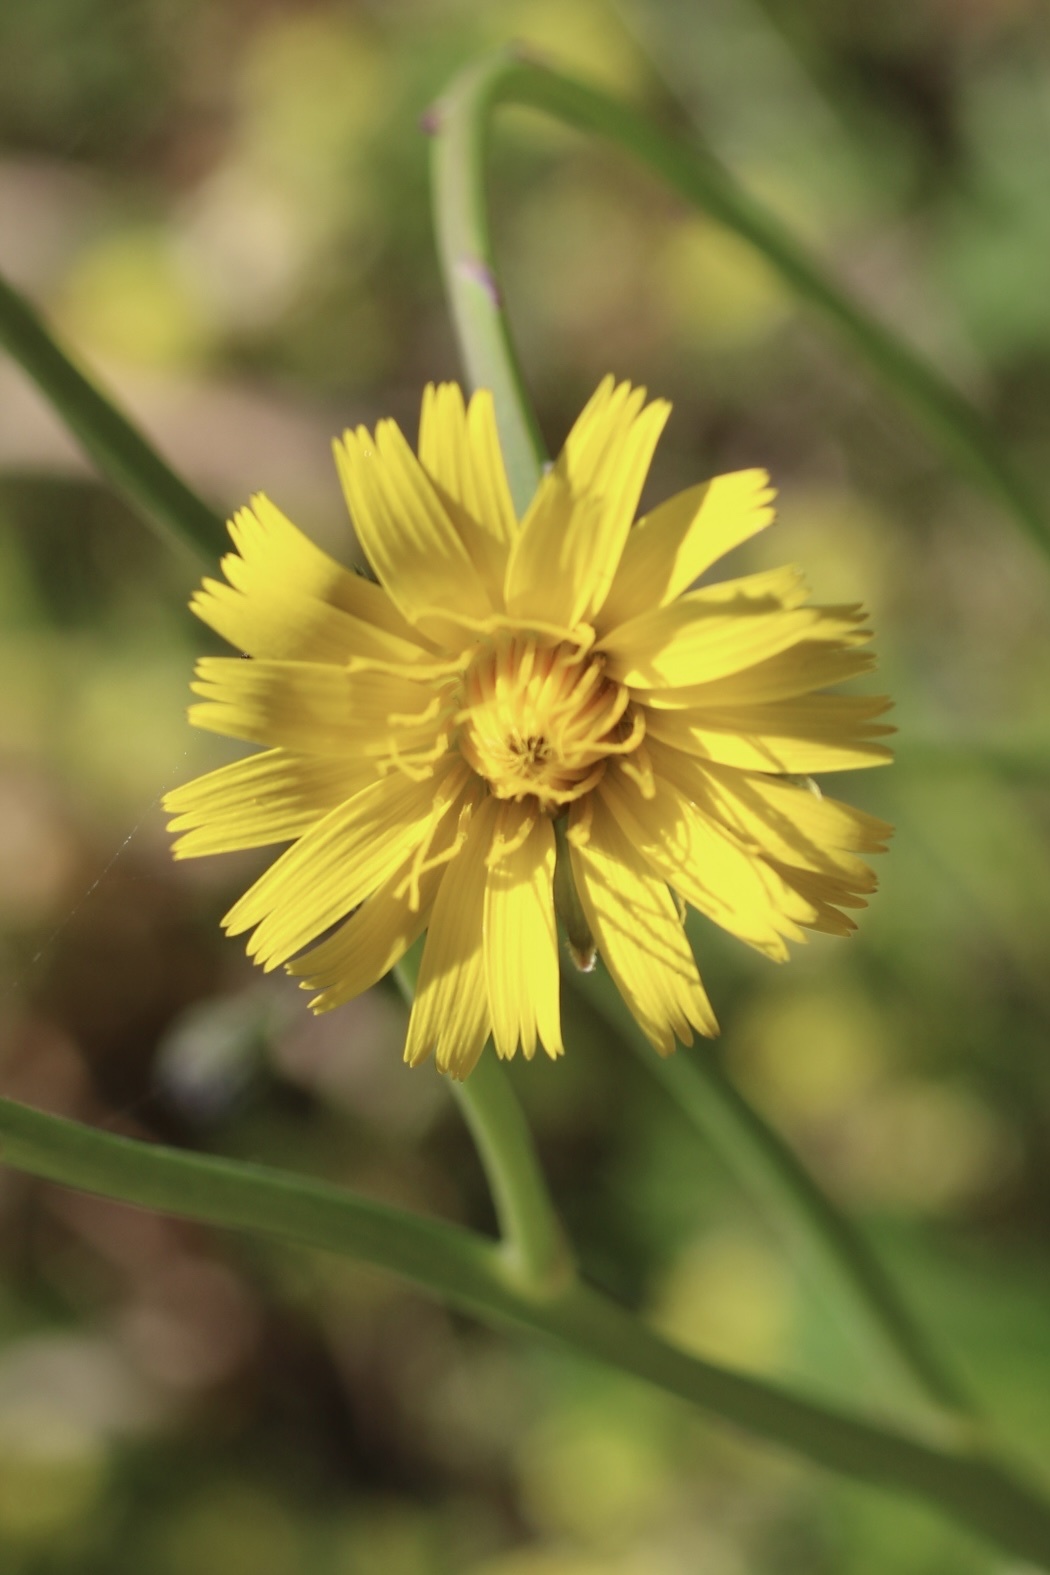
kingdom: Plantae
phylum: Tracheophyta
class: Magnoliopsida
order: Asterales
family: Asteraceae
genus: Hypochaeris
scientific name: Hypochaeris radicata
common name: Flatweed
